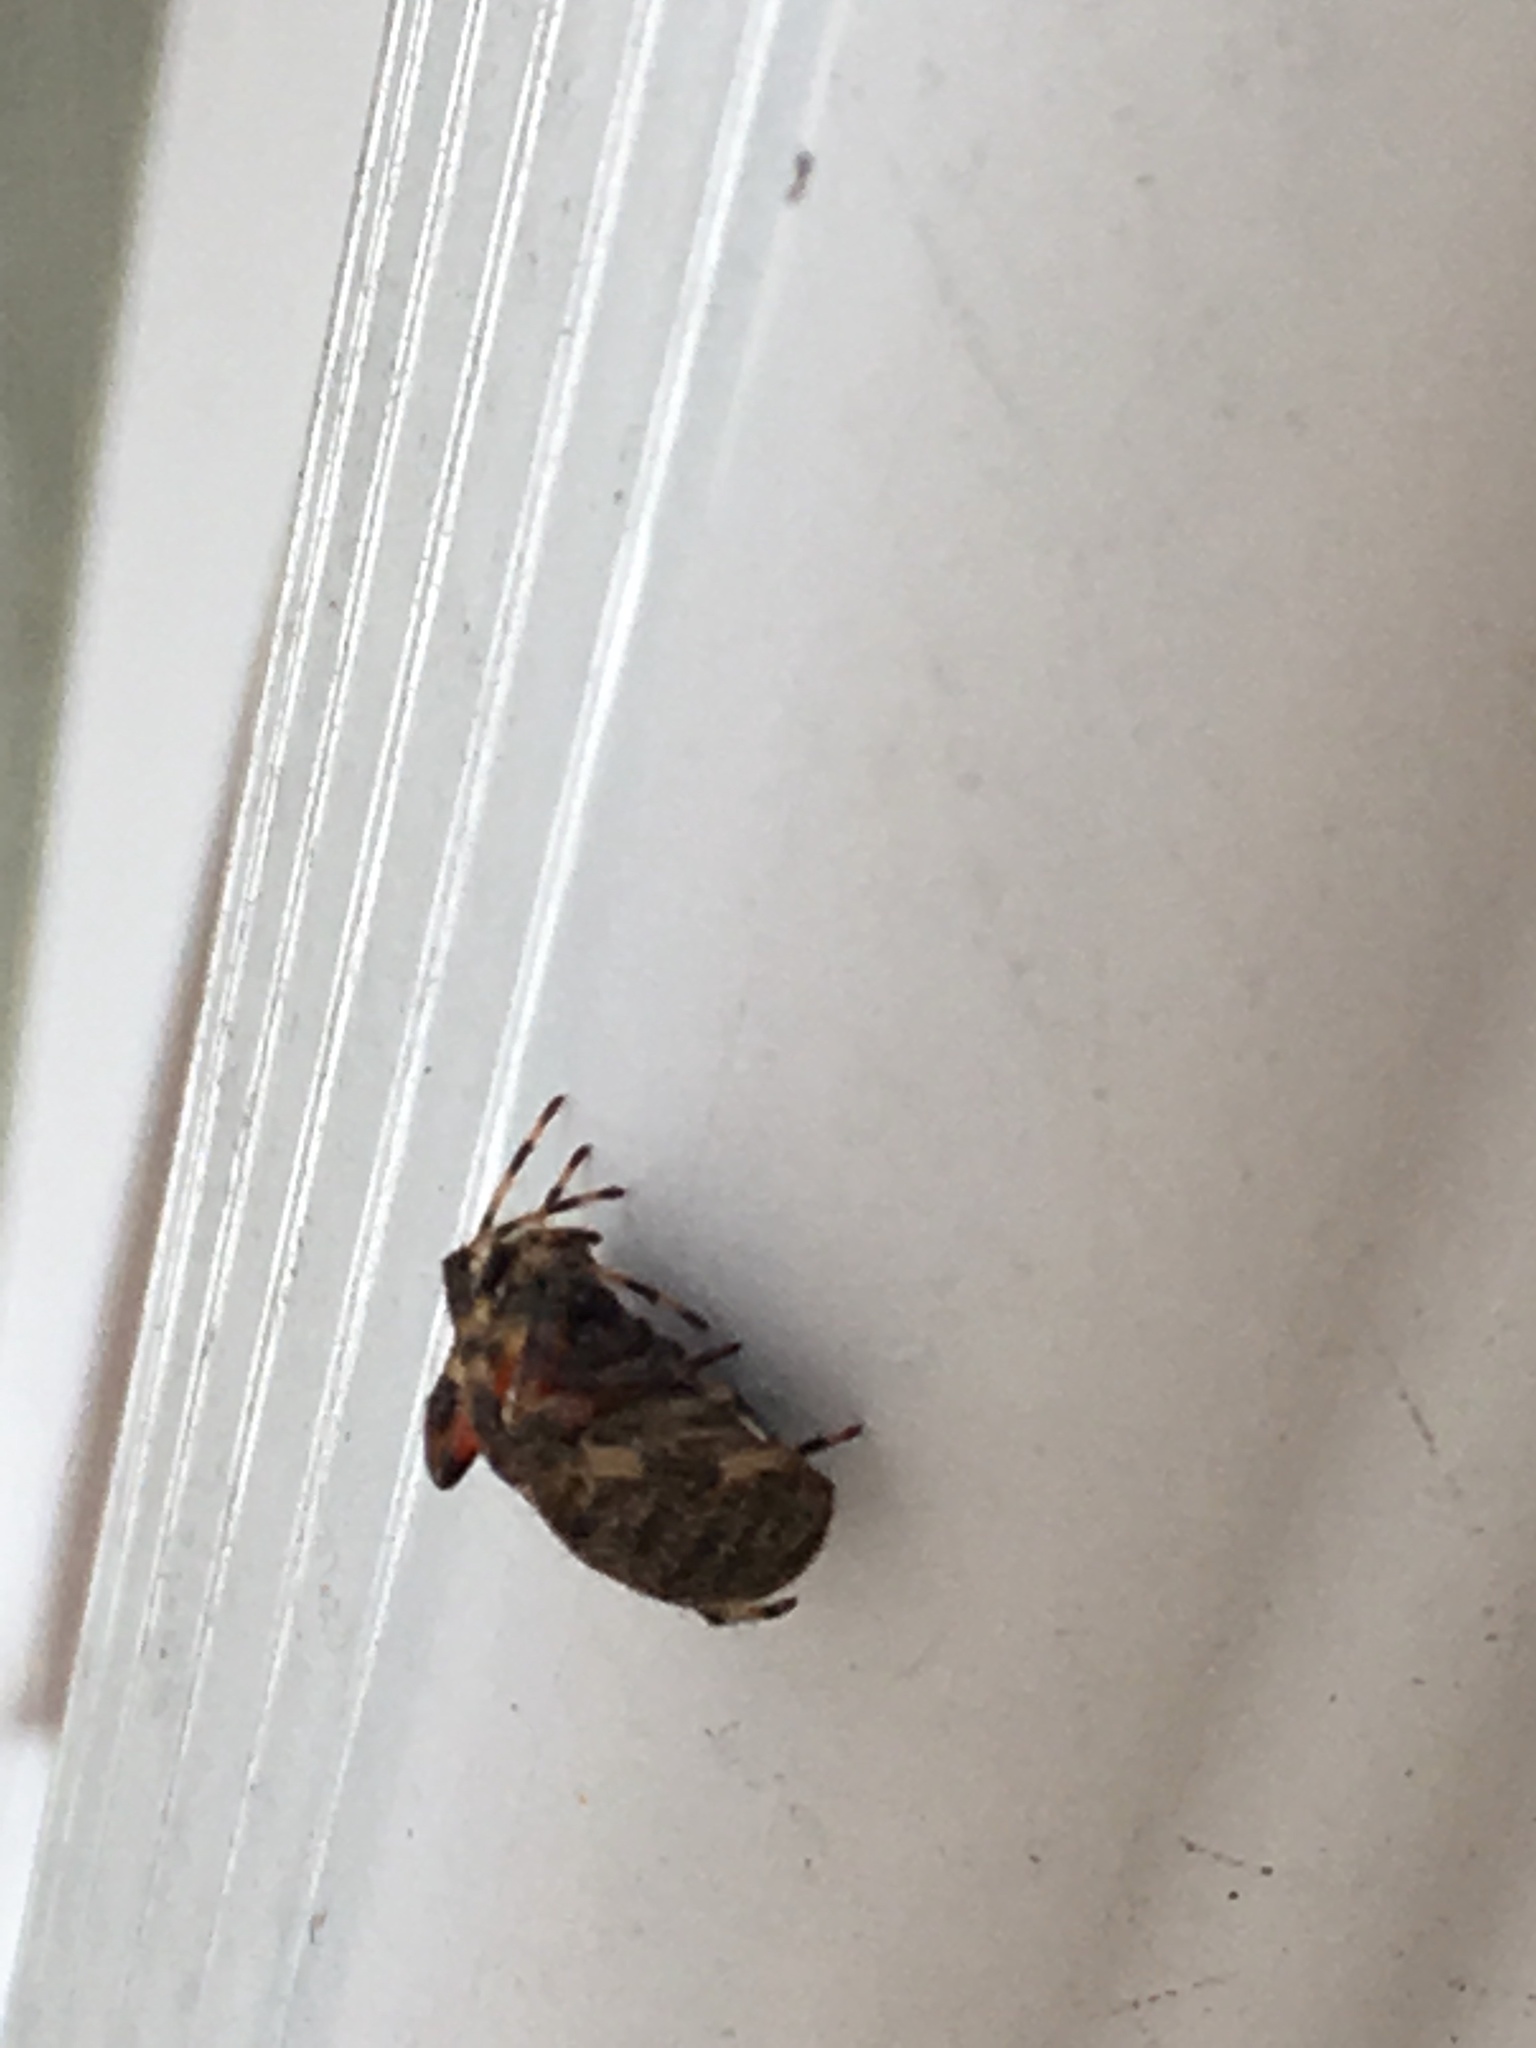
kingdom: Animalia
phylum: Arthropoda
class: Arachnida
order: Araneae
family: Araneidae
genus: Neoscona
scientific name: Neoscona crucifera
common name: Spotted orbweaver
